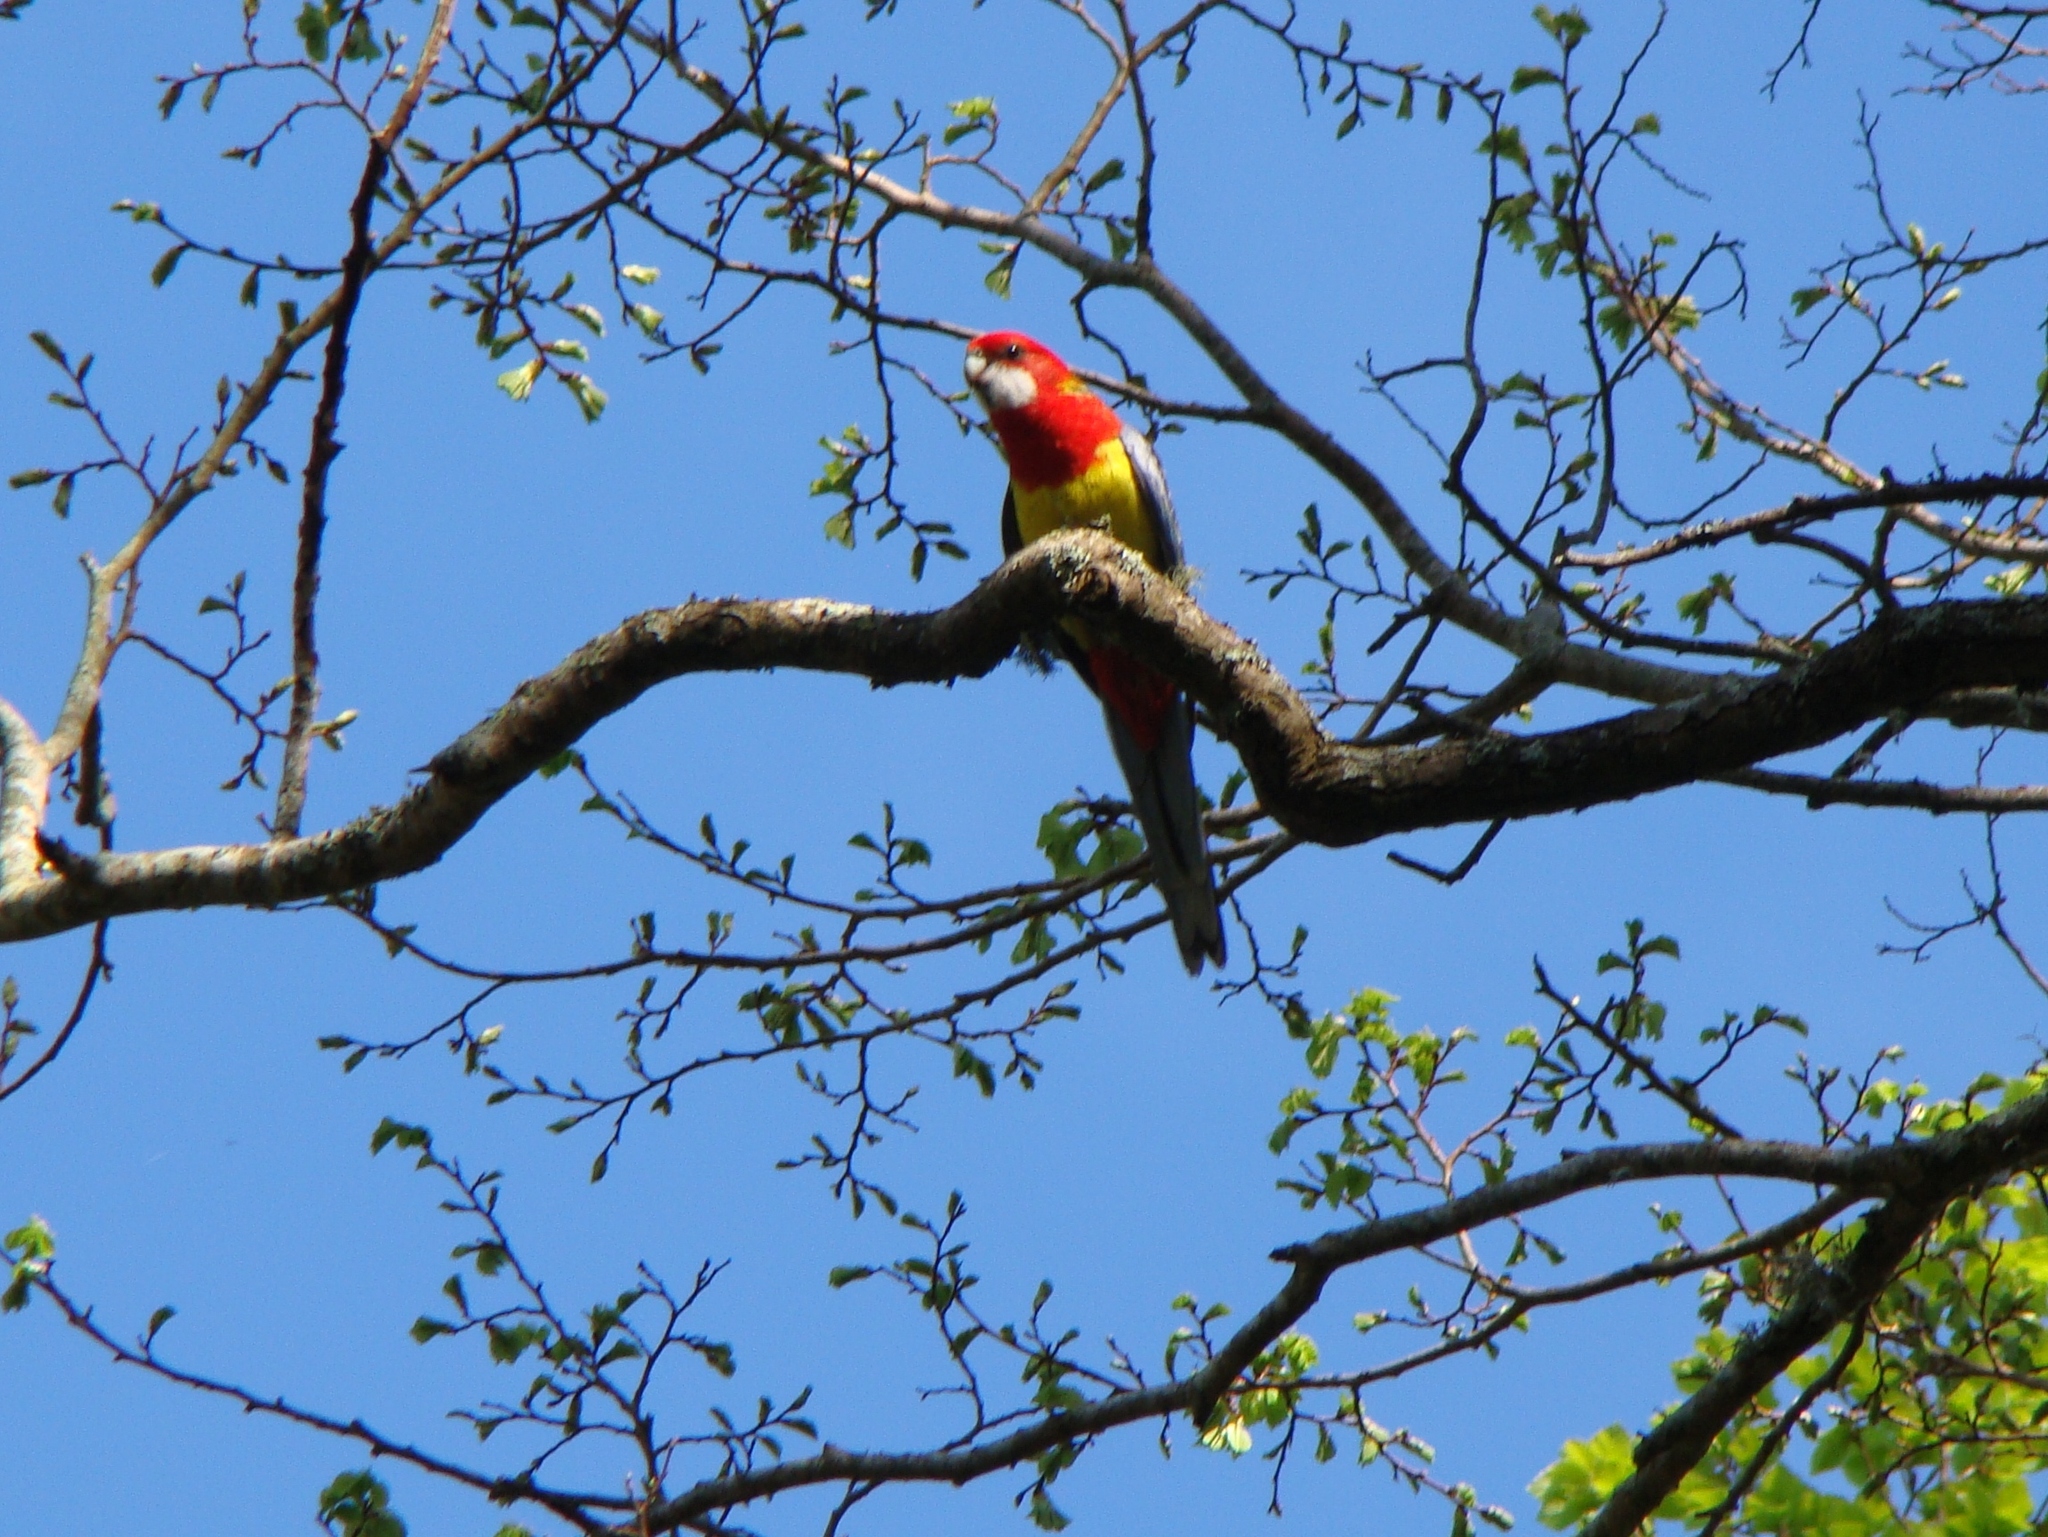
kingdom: Animalia
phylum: Chordata
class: Aves
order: Psittaciformes
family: Psittacidae
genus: Platycercus
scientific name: Platycercus eximius
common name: Eastern rosella
